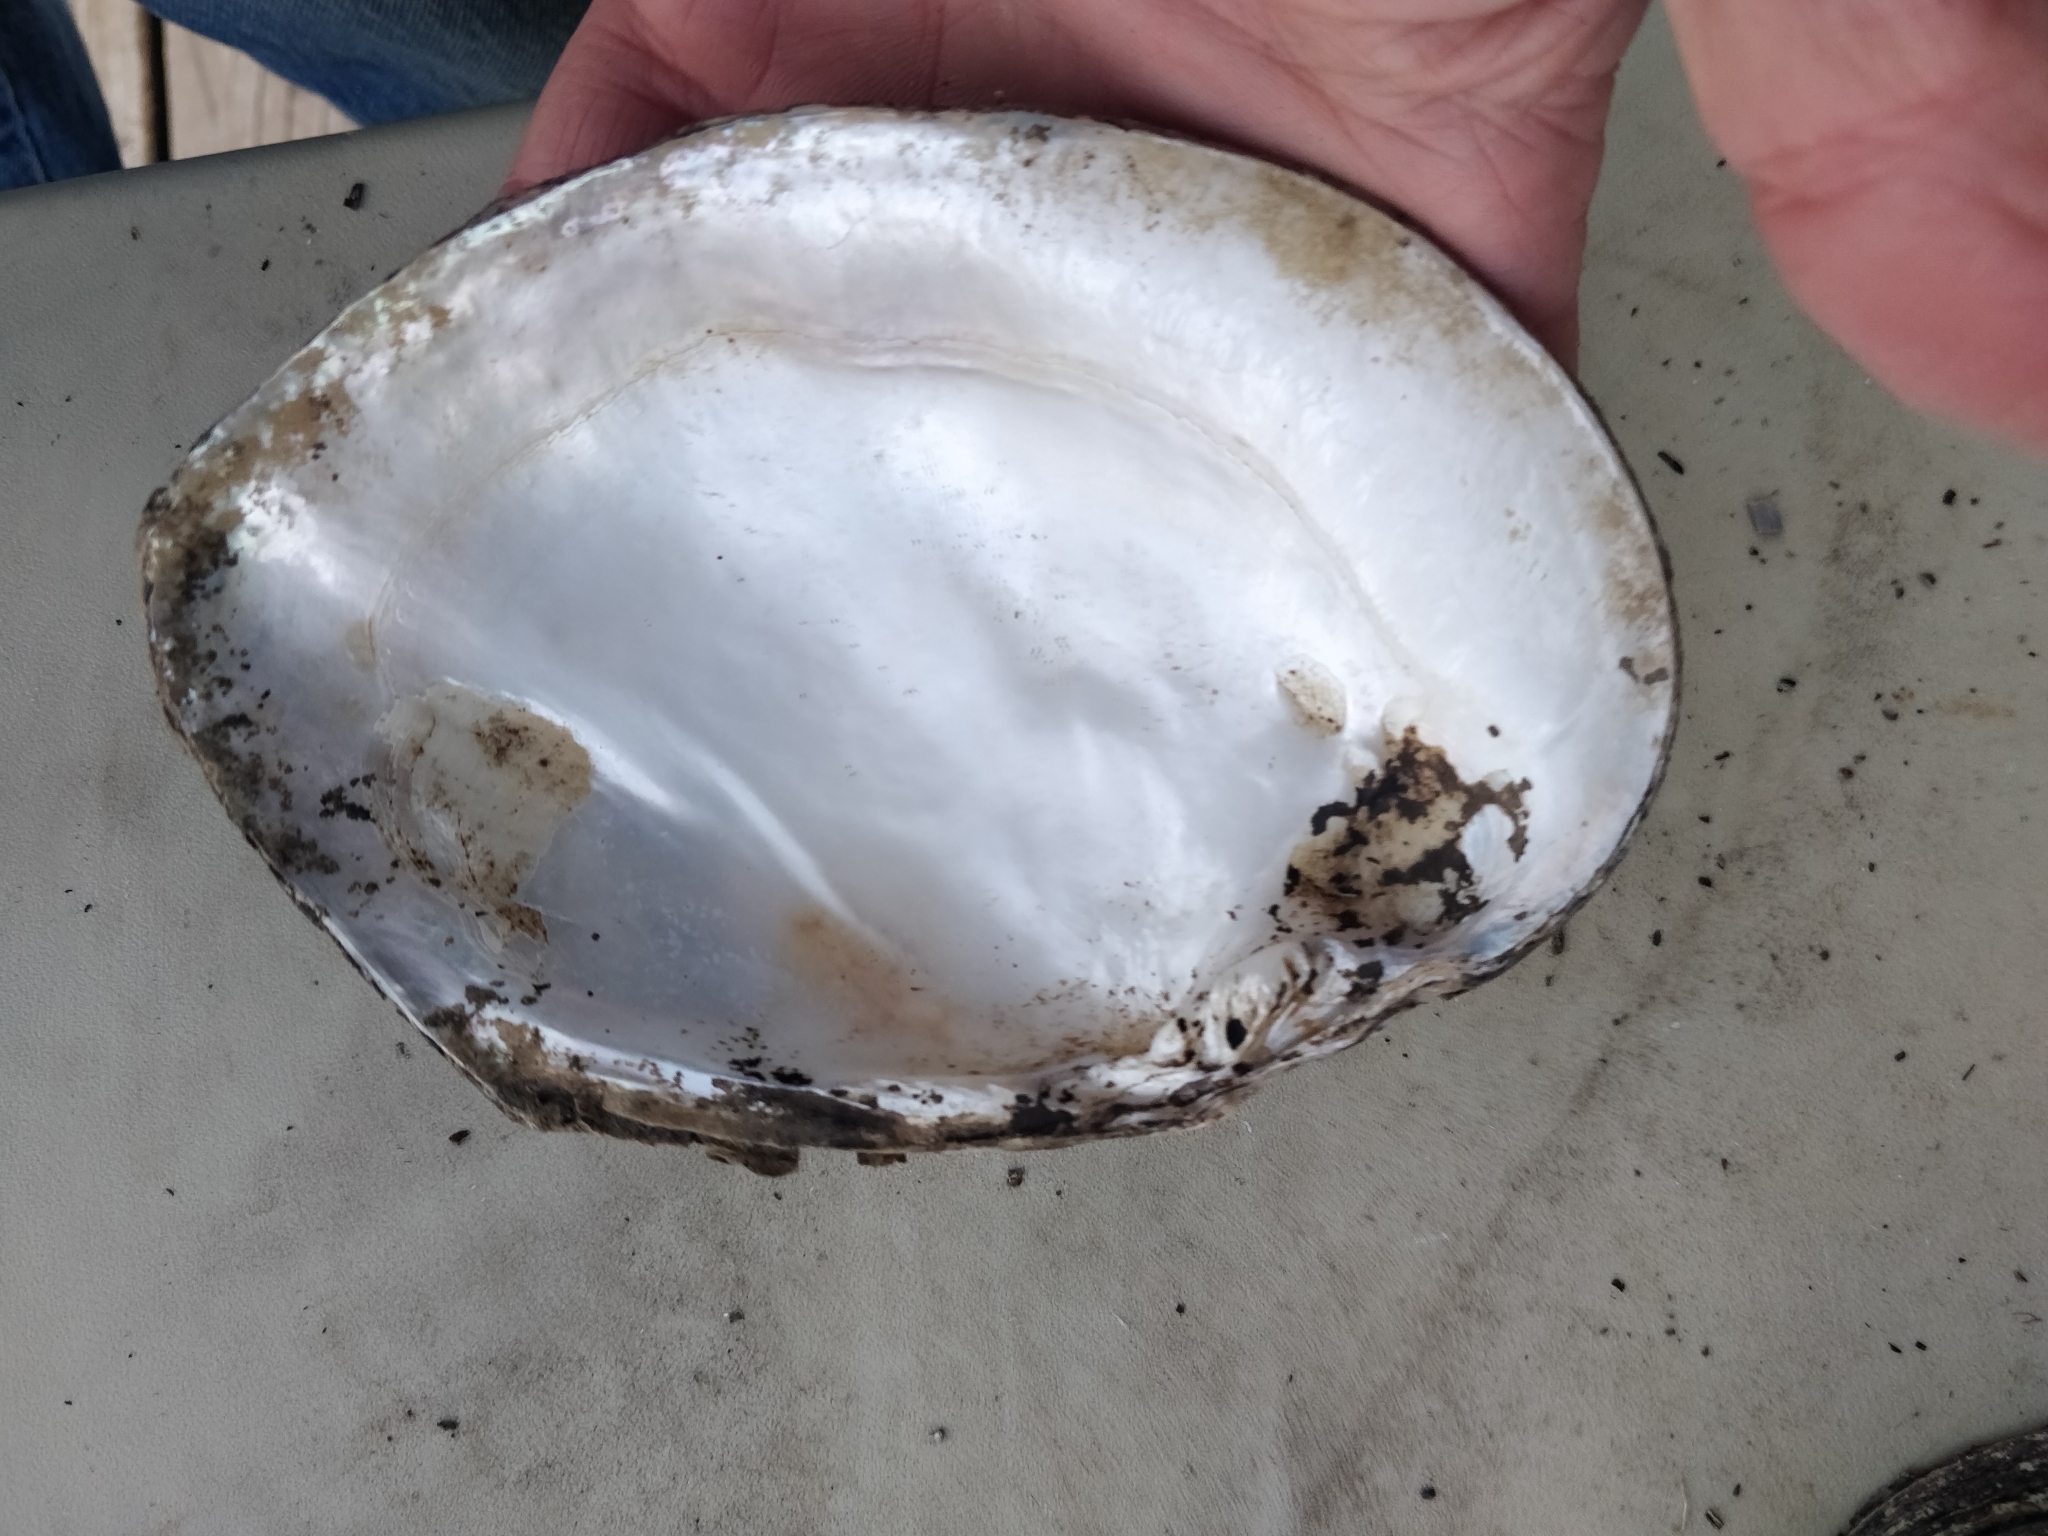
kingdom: Animalia
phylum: Mollusca
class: Bivalvia
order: Unionida
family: Unionidae
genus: Lasmigona
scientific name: Lasmigona complanata
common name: White heelsplitter
